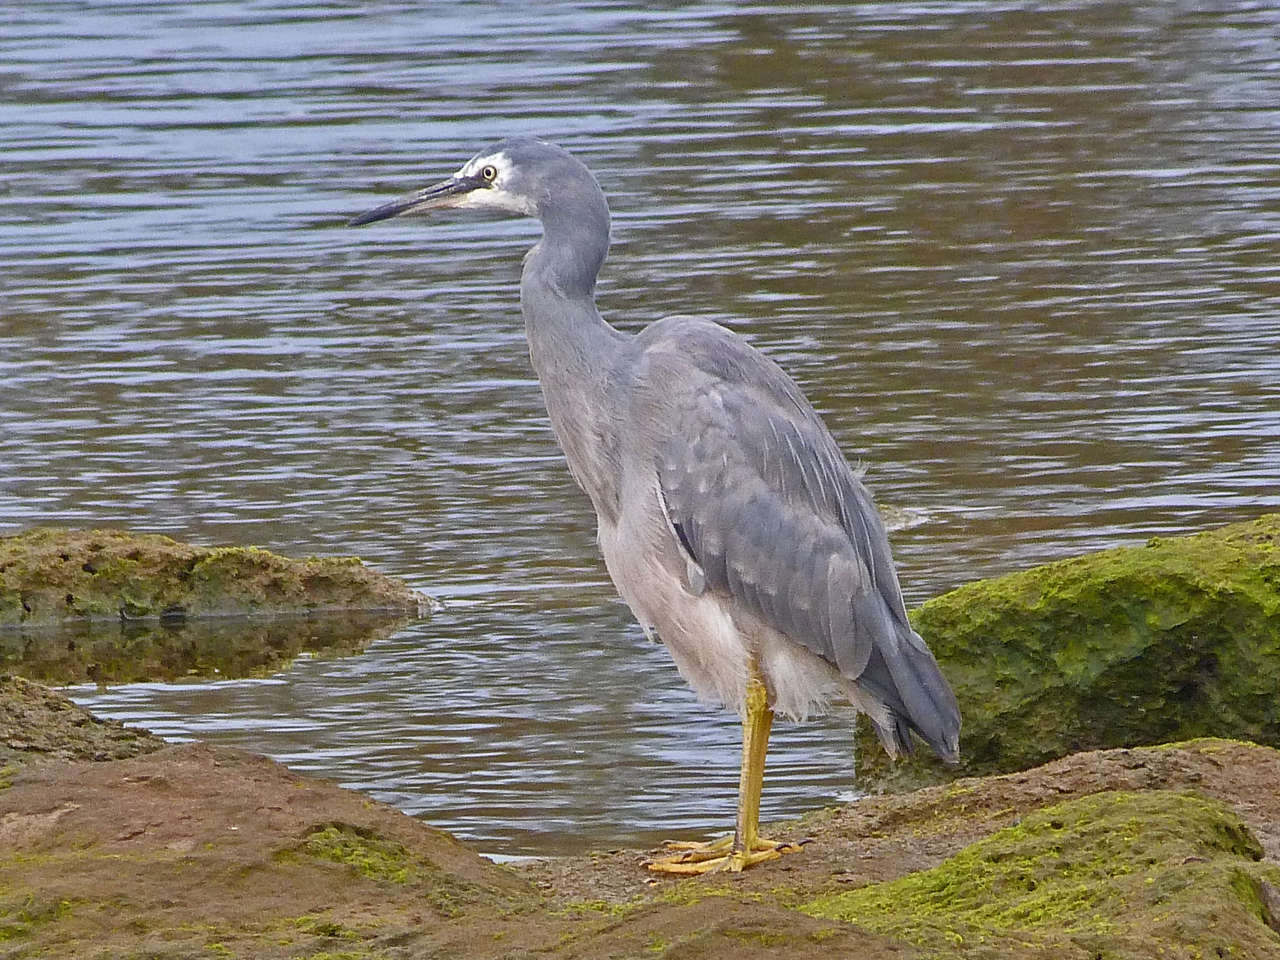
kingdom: Animalia
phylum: Chordata
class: Aves
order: Pelecaniformes
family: Ardeidae
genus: Egretta
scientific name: Egretta novaehollandiae
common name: White-faced heron
